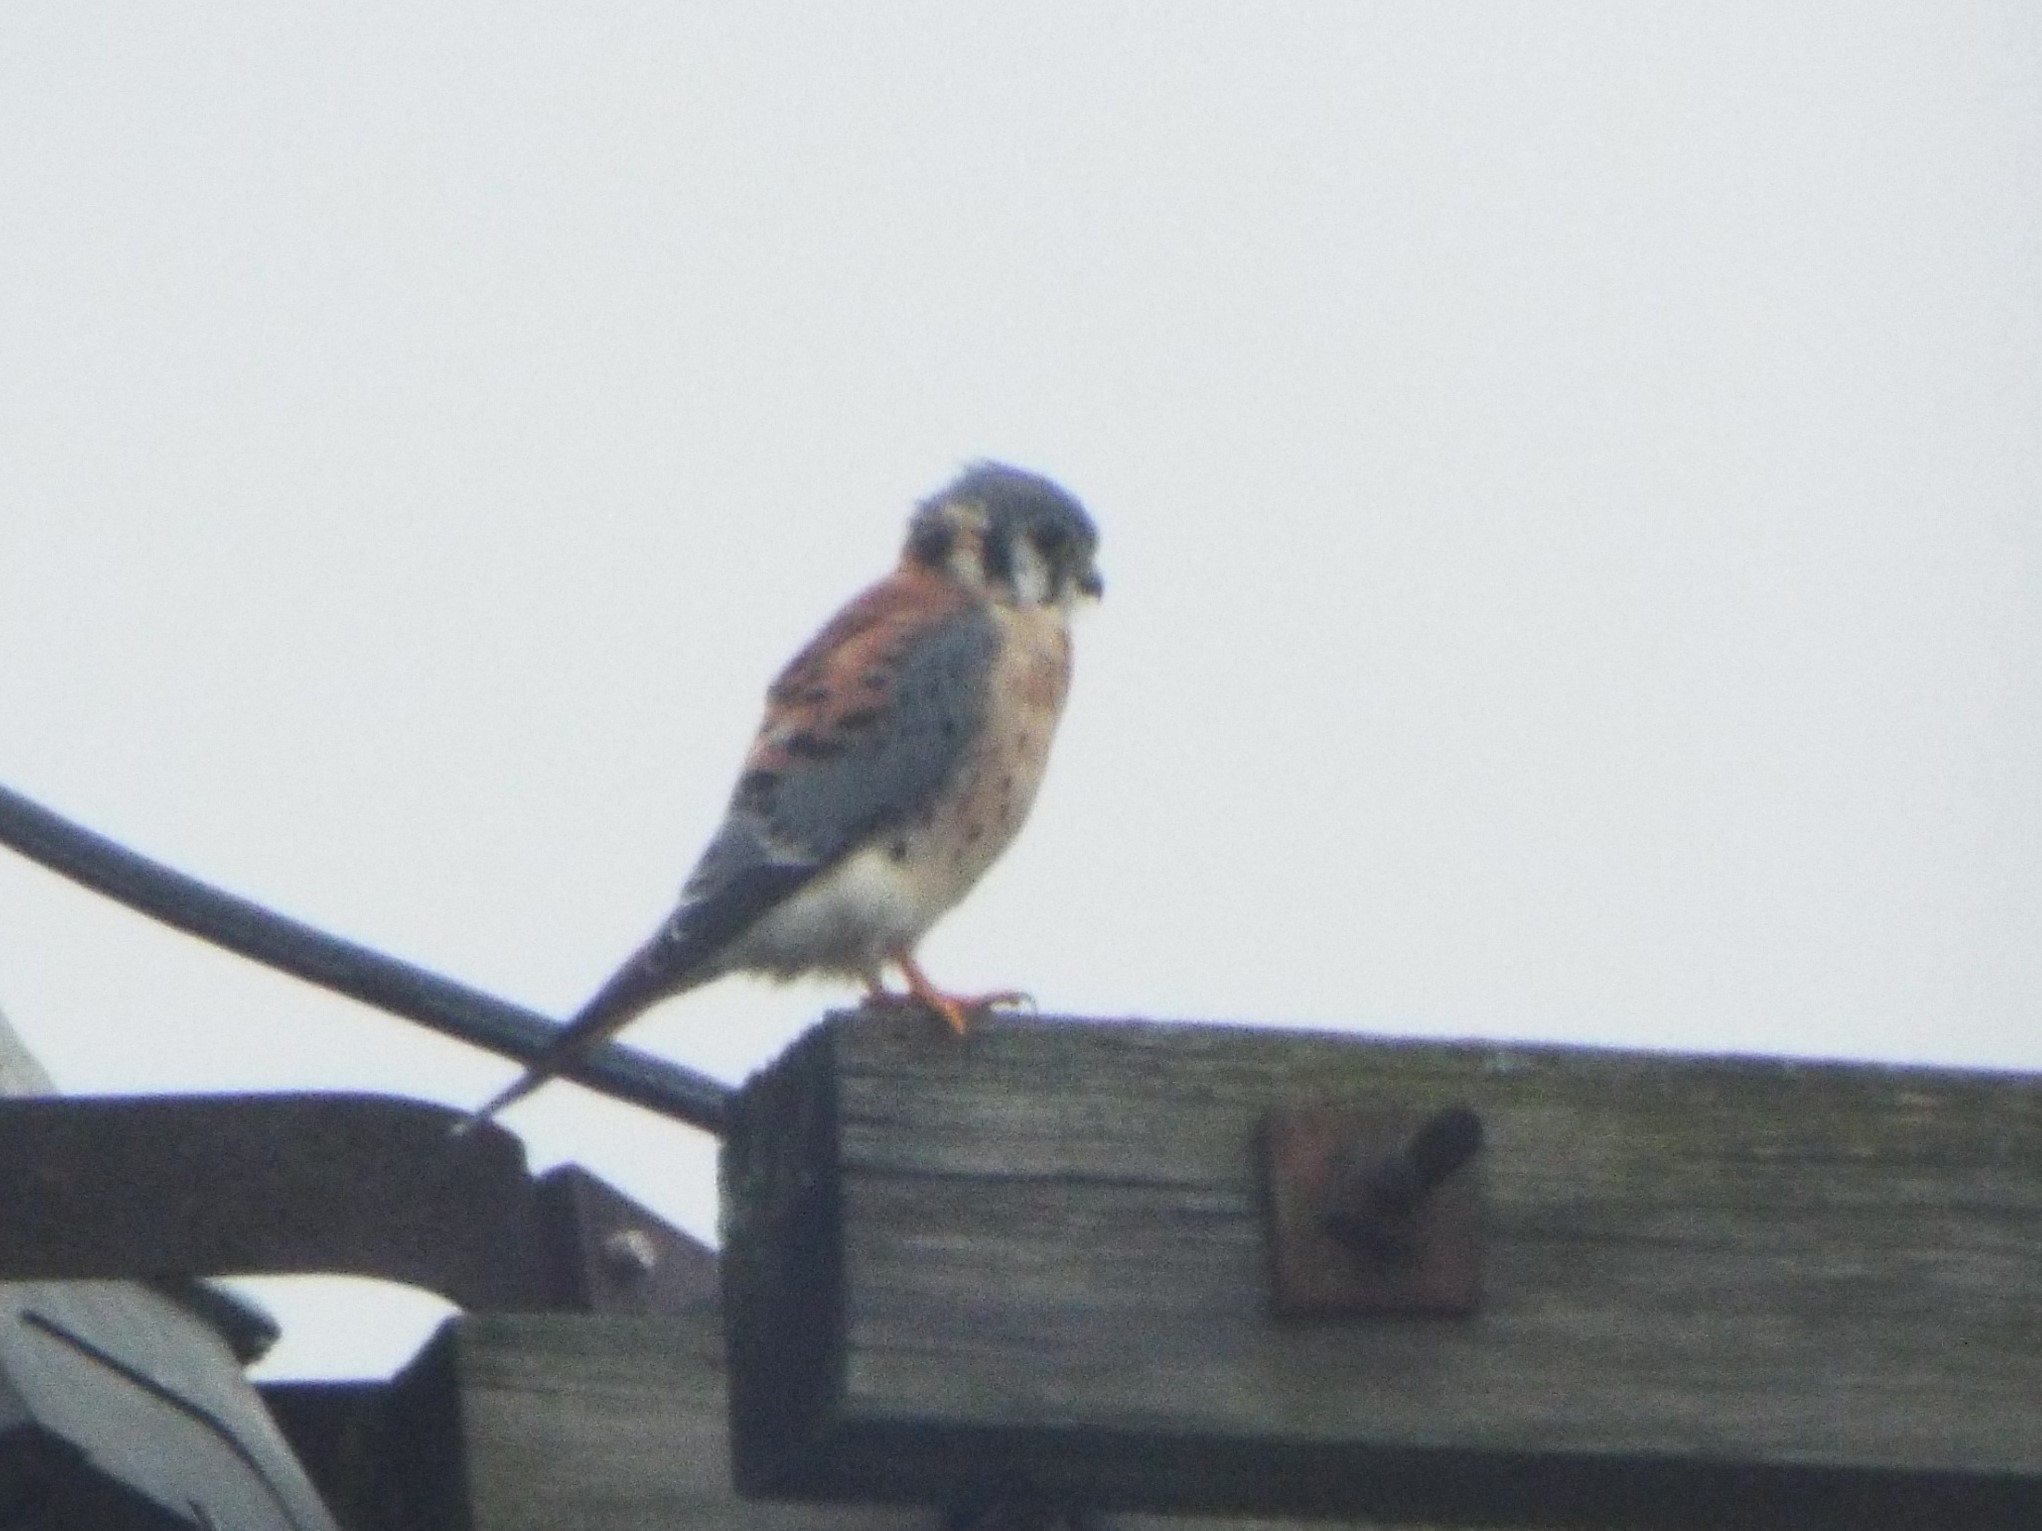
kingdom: Animalia
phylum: Chordata
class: Aves
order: Falconiformes
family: Falconidae
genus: Falco
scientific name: Falco sparverius
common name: American kestrel
